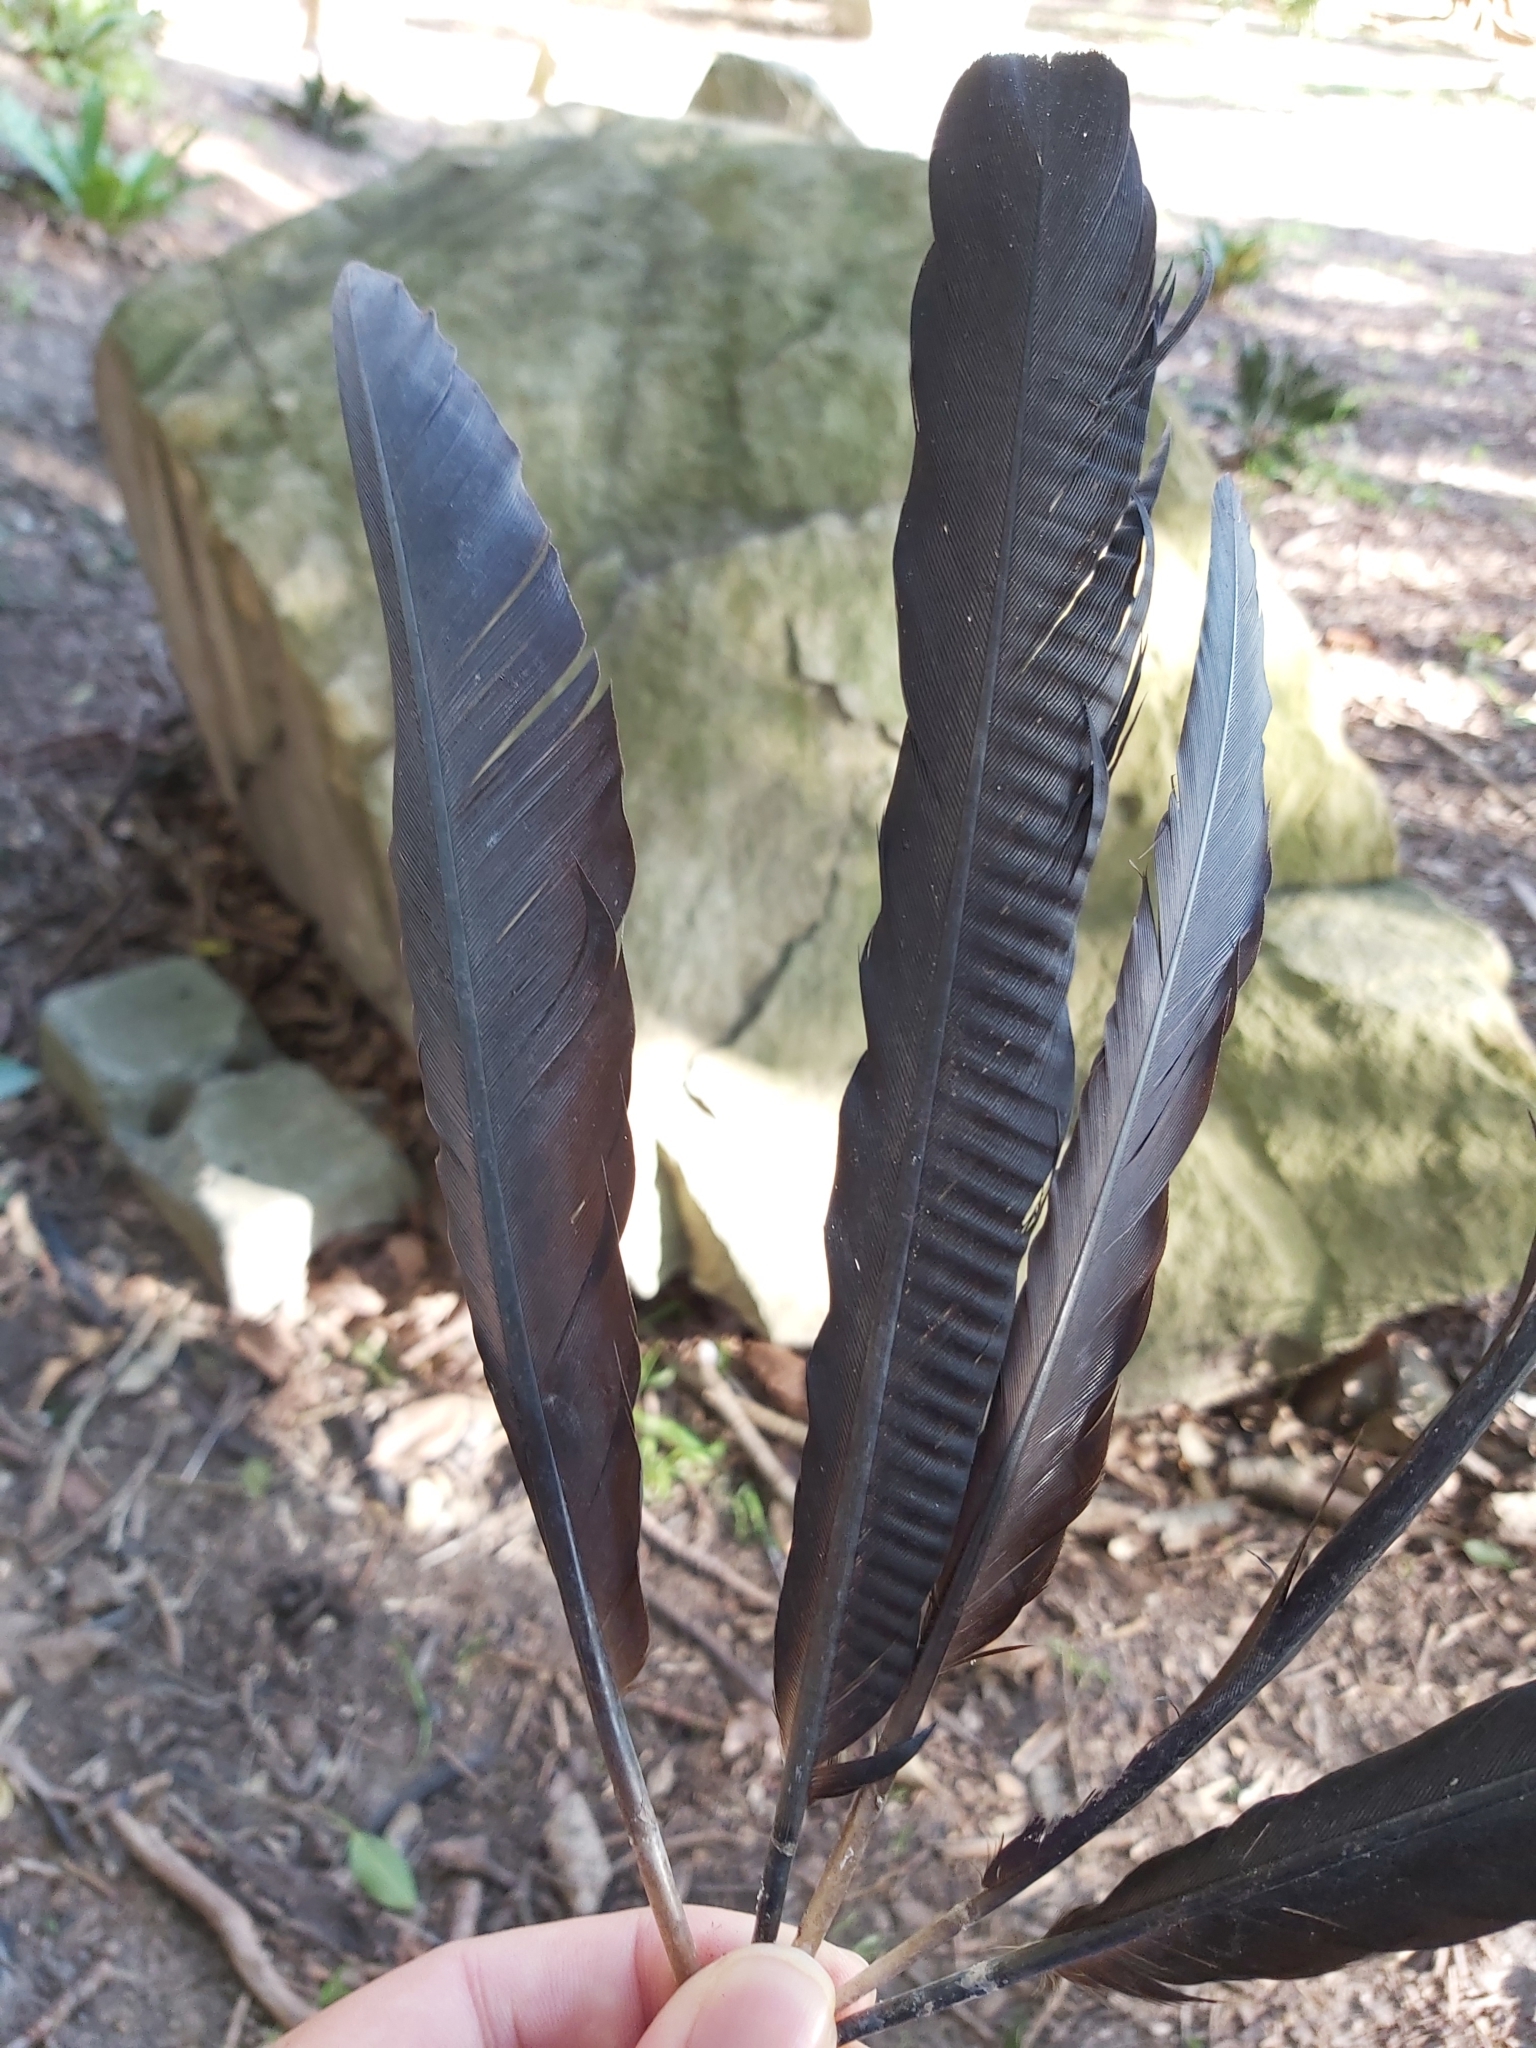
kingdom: Animalia
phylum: Chordata
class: Aves
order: Suliformes
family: Anhingidae
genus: Anhinga
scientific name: Anhinga novaehollandiae
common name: Australasian darter
